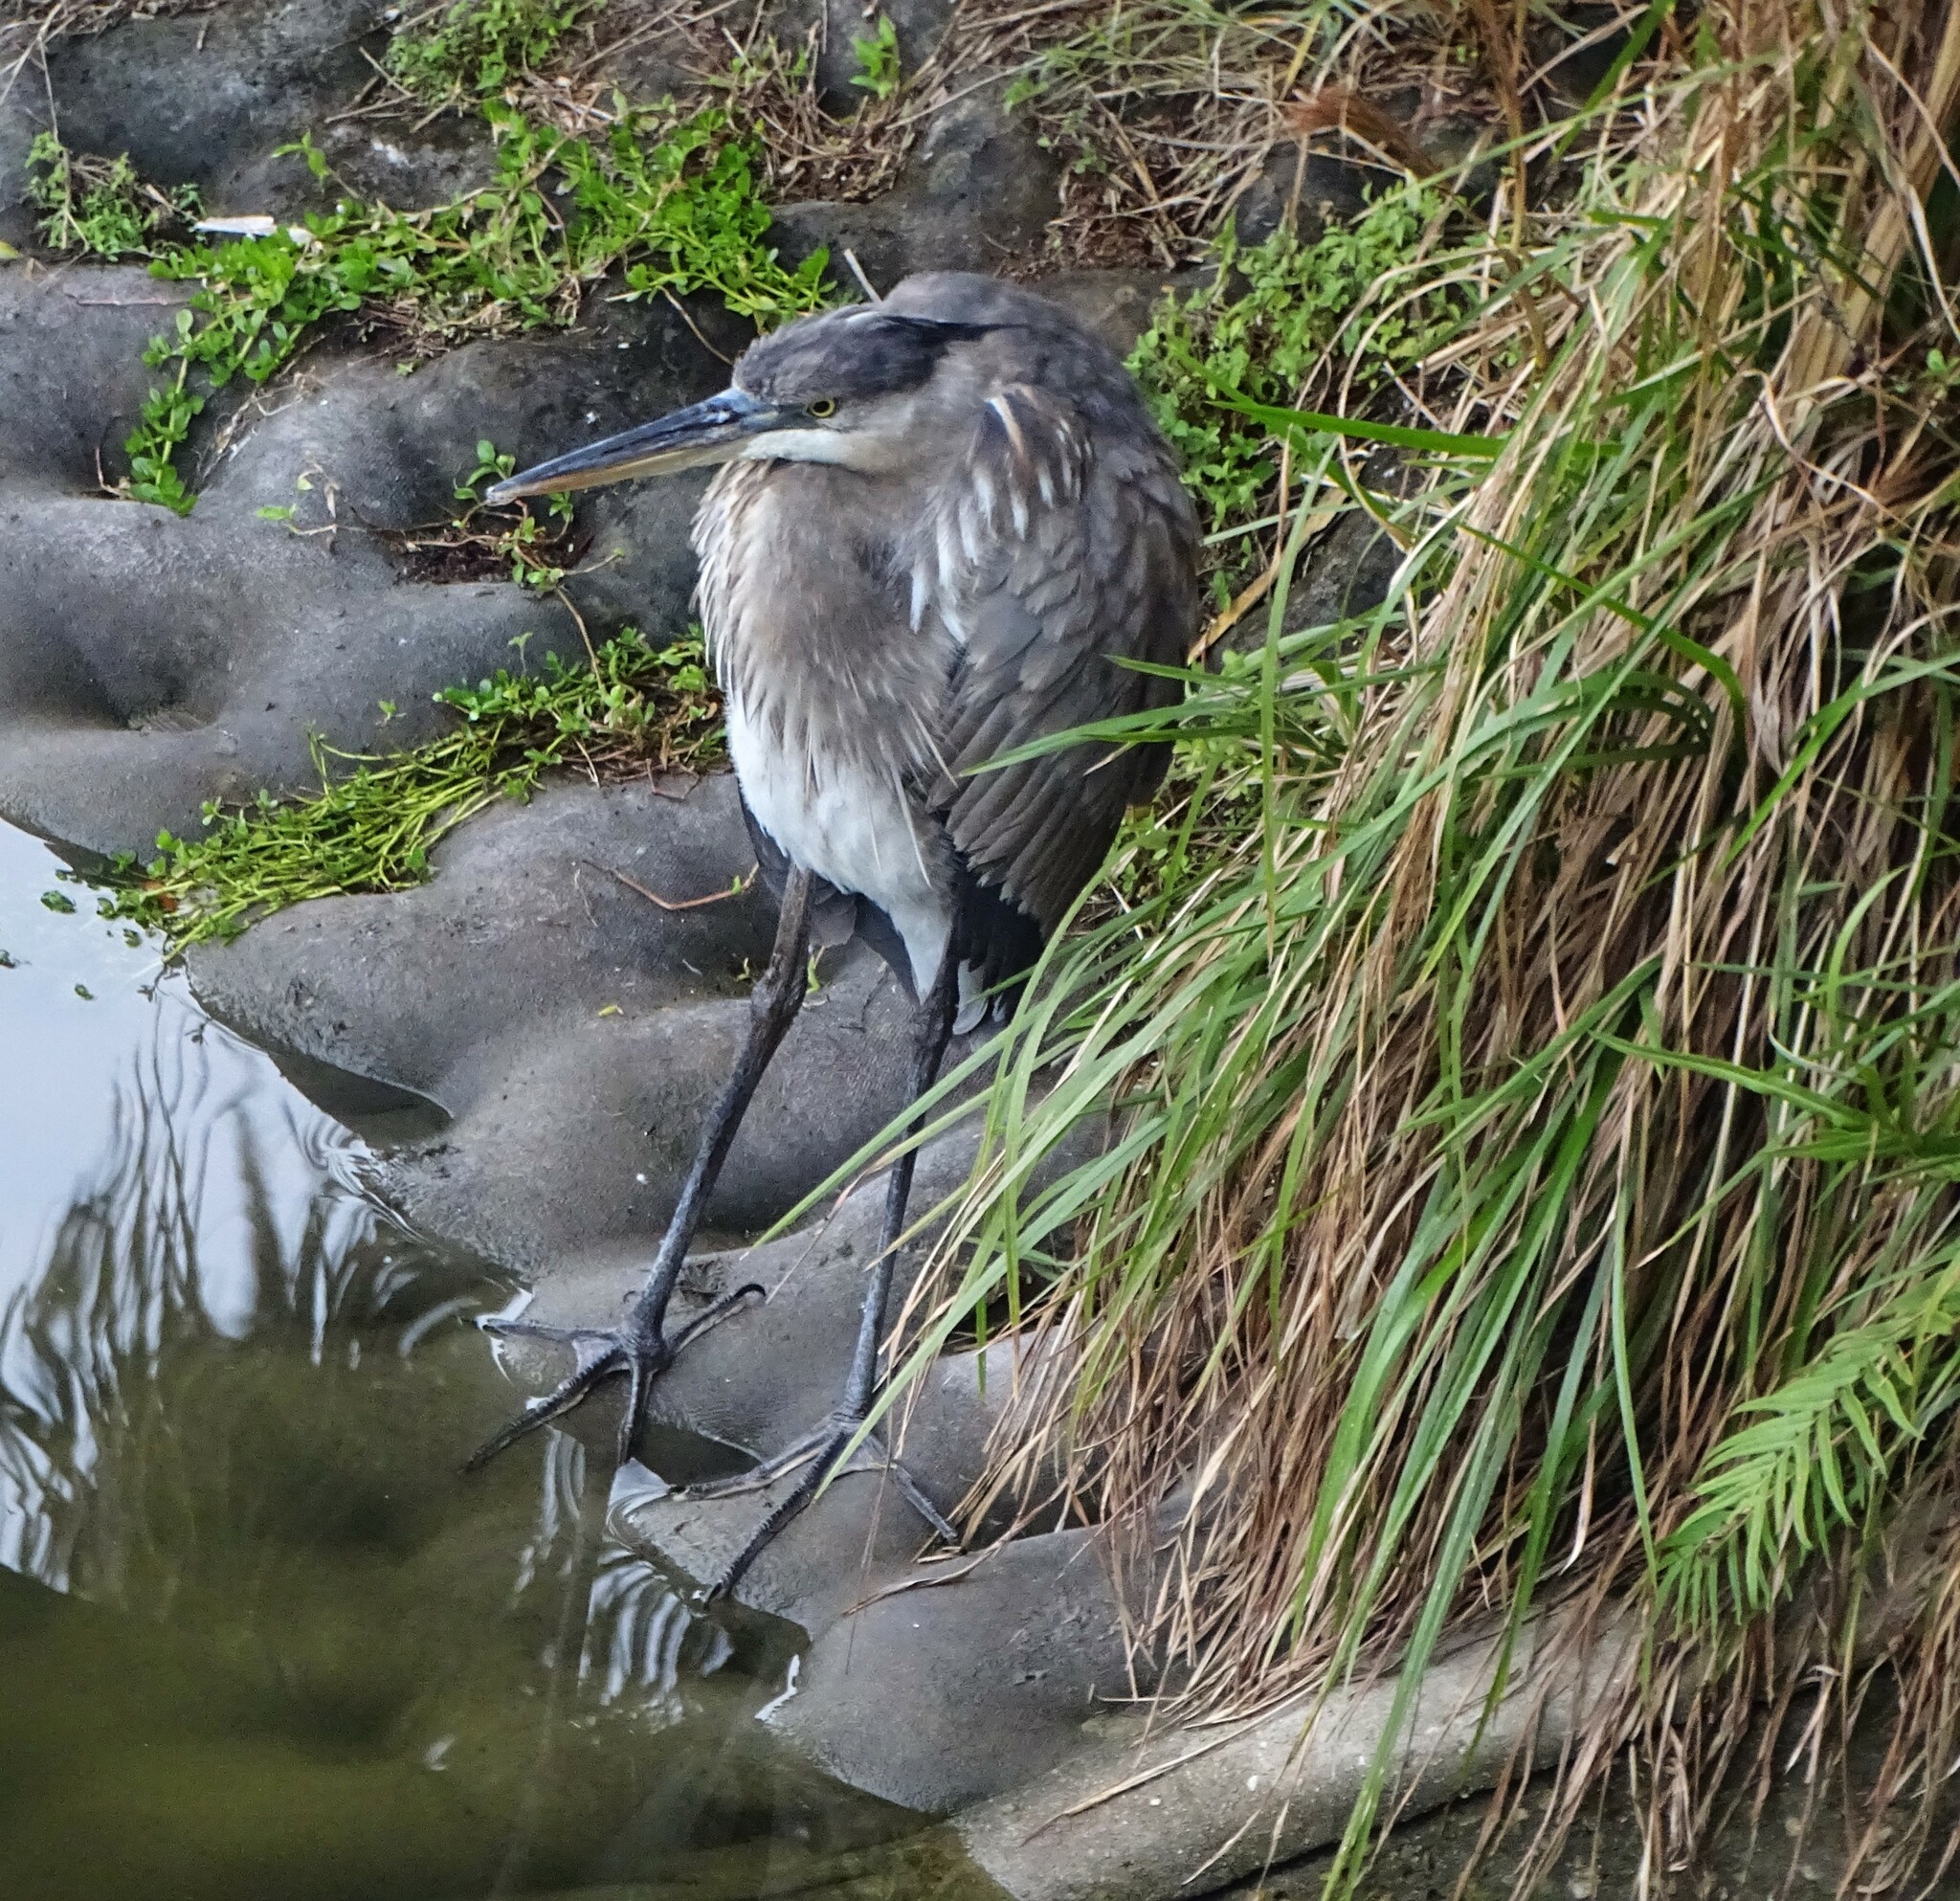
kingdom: Animalia
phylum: Chordata
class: Aves
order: Pelecaniformes
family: Ardeidae
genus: Ardea
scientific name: Ardea herodias
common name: Great blue heron
